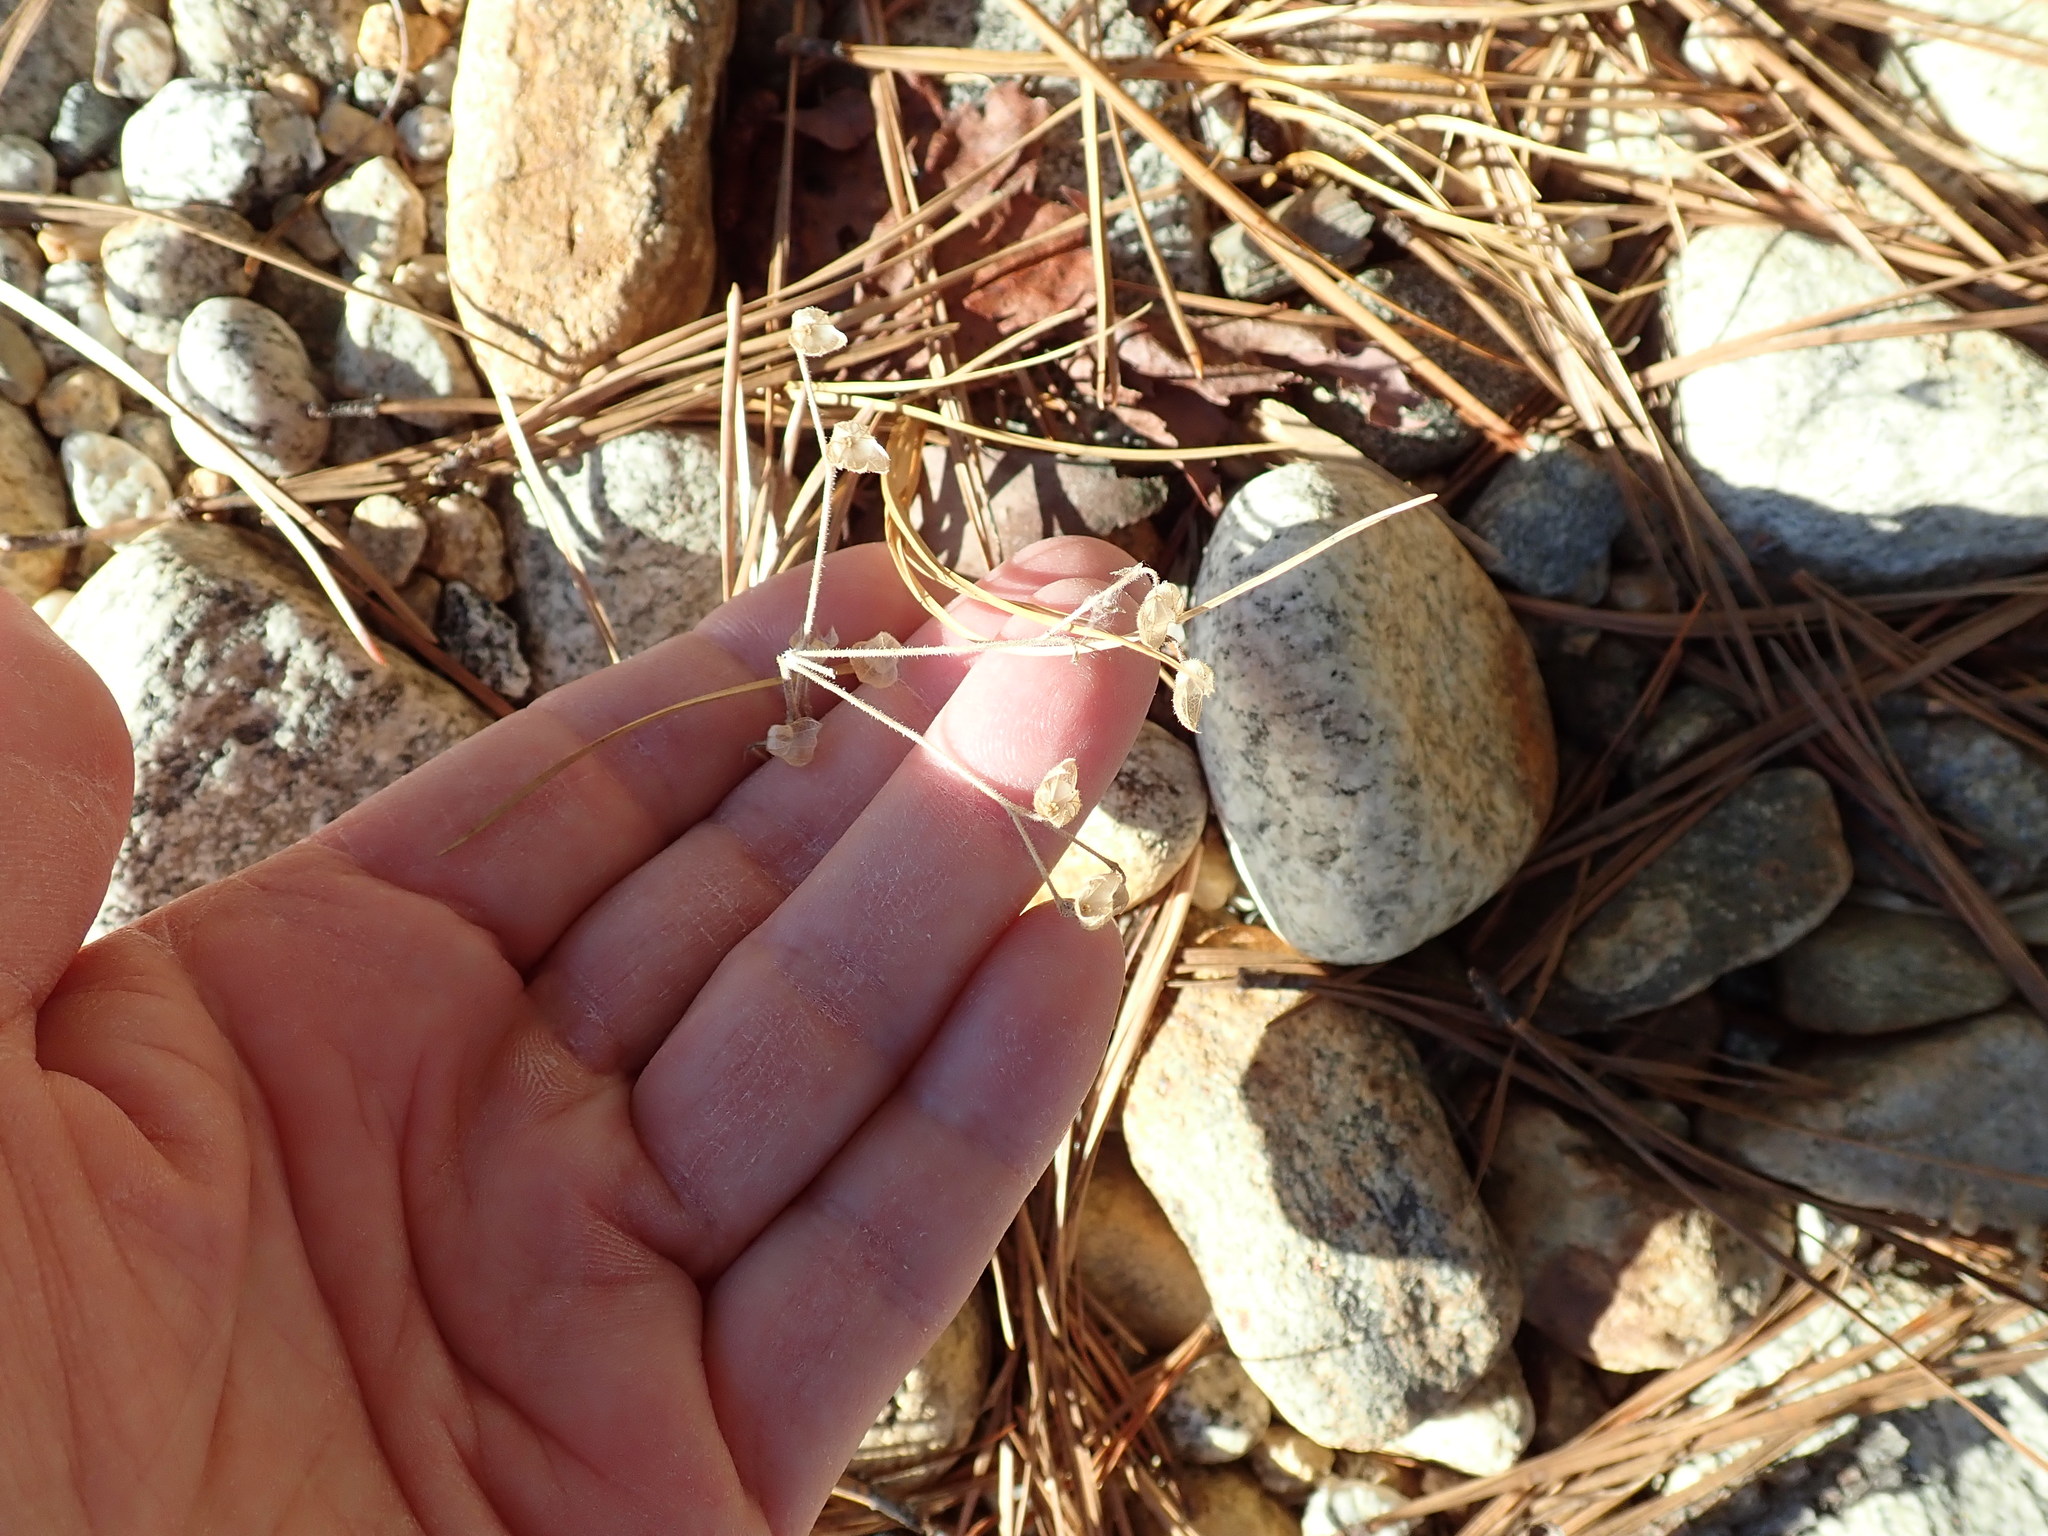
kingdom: Plantae
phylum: Tracheophyta
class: Magnoliopsida
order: Lamiales
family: Lamiaceae
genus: Trichostema
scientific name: Trichostema dichotomum
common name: Bastard pennyroyal
